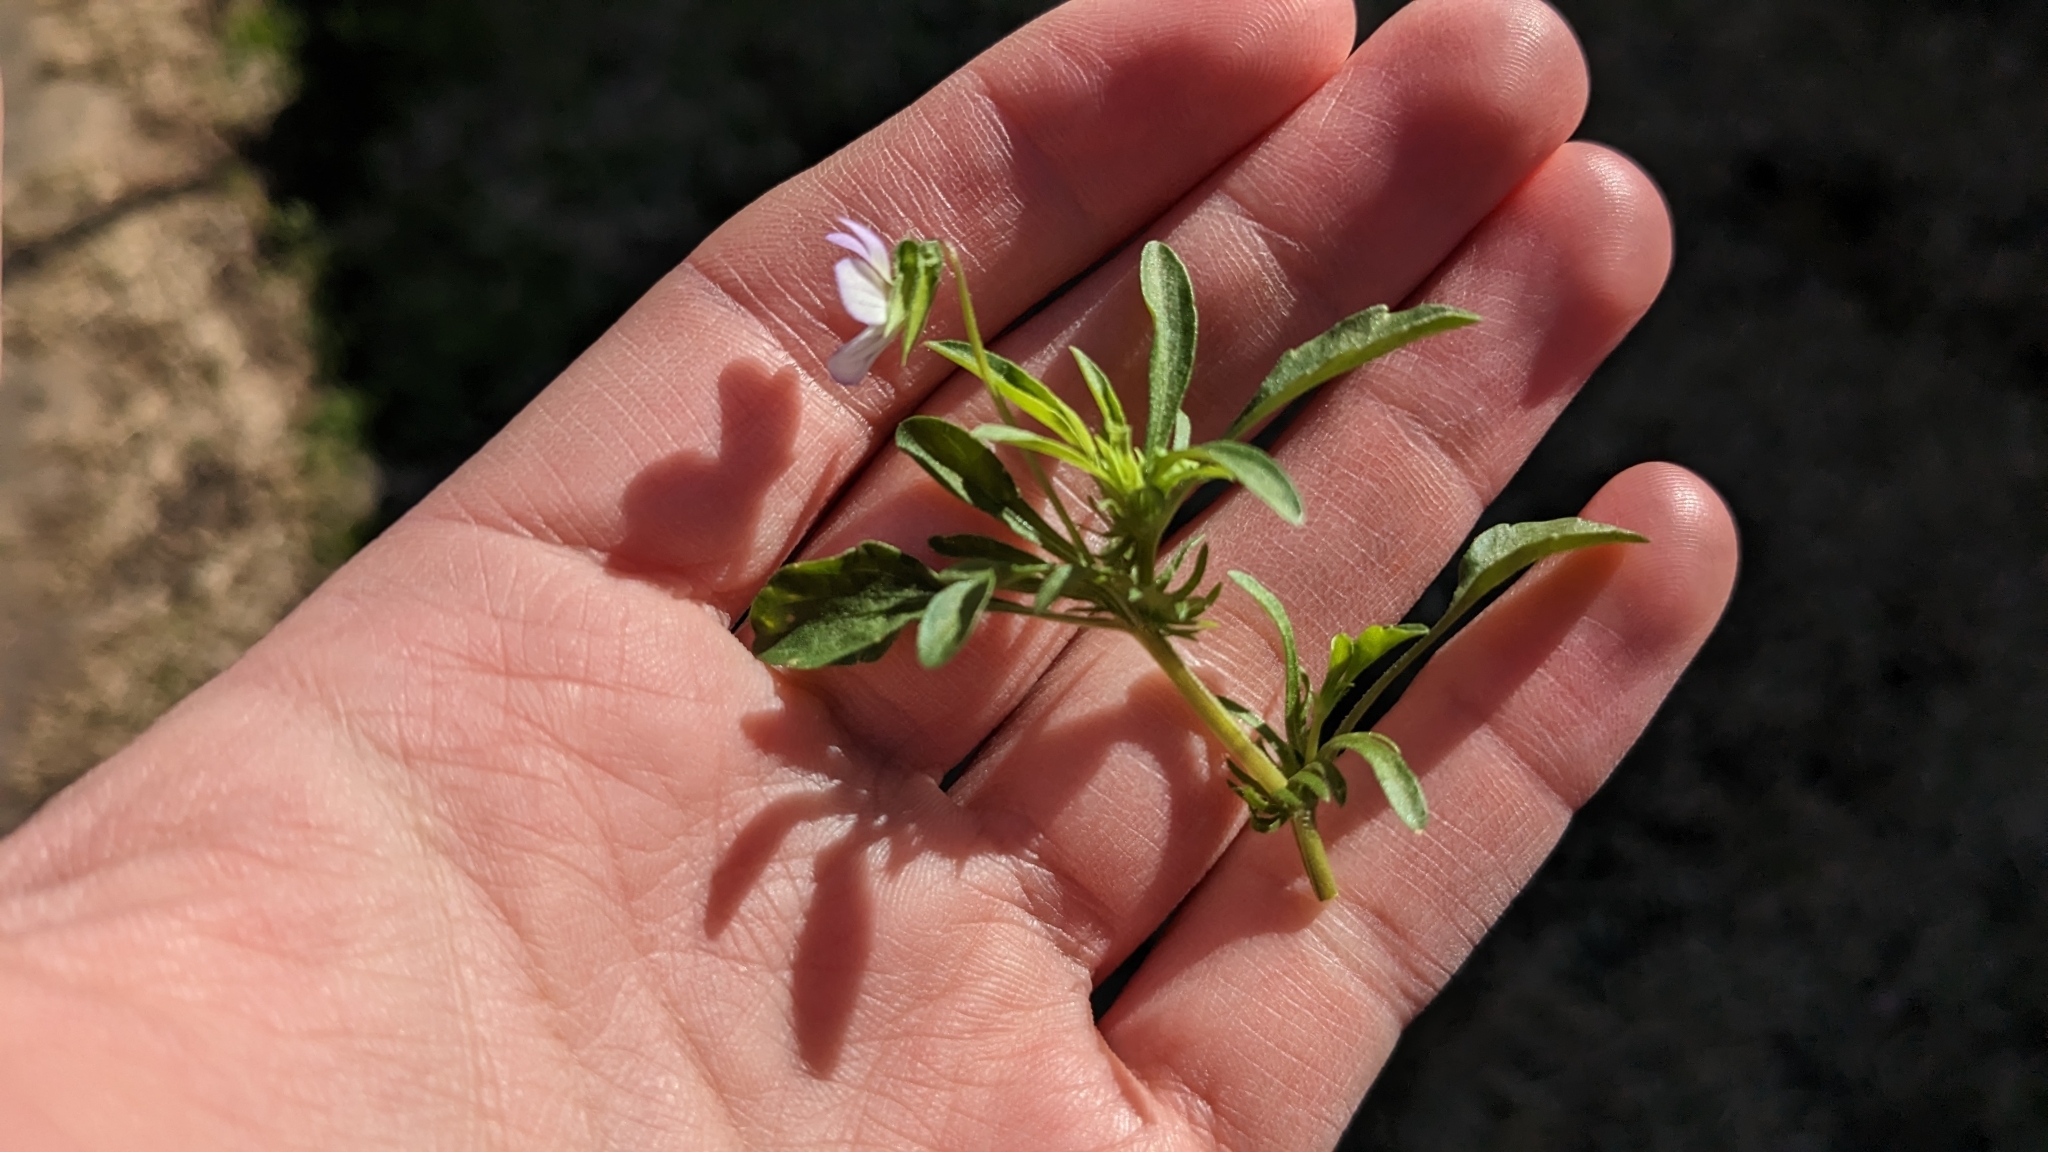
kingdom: Plantae
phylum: Tracheophyta
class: Magnoliopsida
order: Malpighiales
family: Violaceae
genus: Viola
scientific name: Viola rafinesquei
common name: American field pansy
